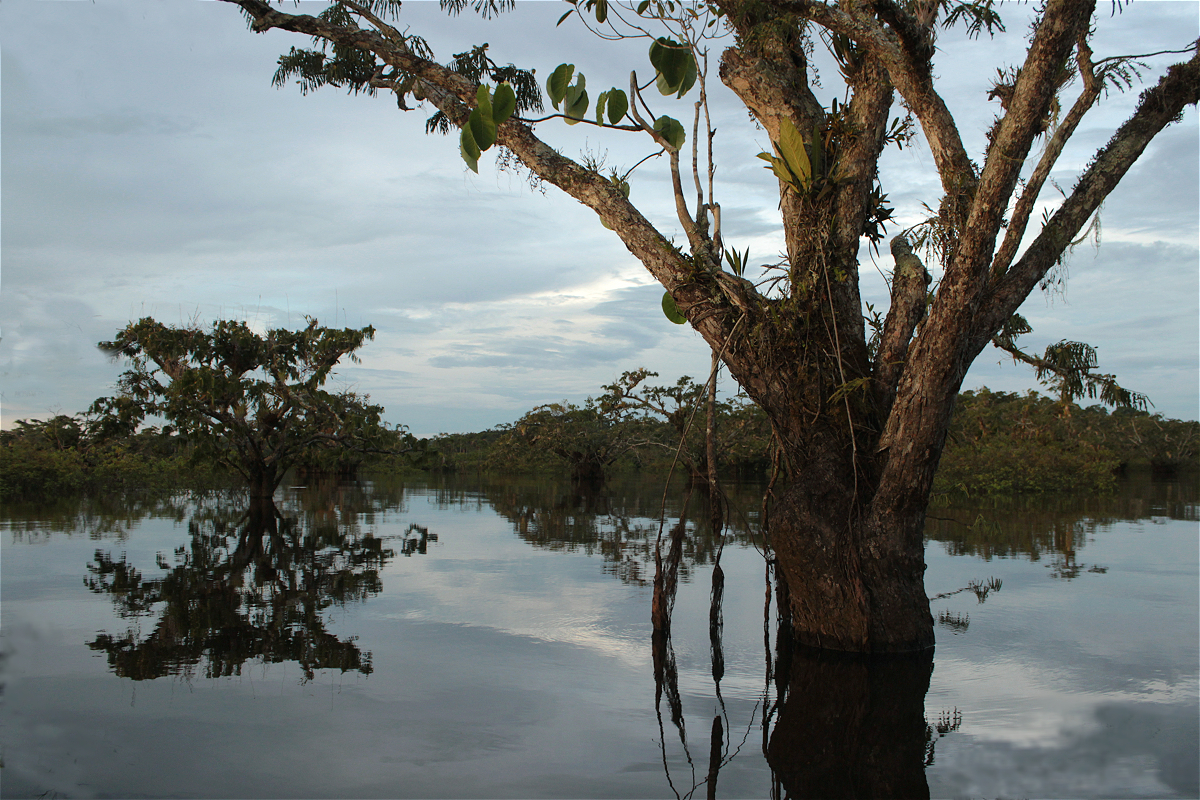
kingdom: Plantae
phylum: Tracheophyta
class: Magnoliopsida
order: Fabales
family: Fabaceae
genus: Macrolobium
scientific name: Macrolobium acaciifolium
